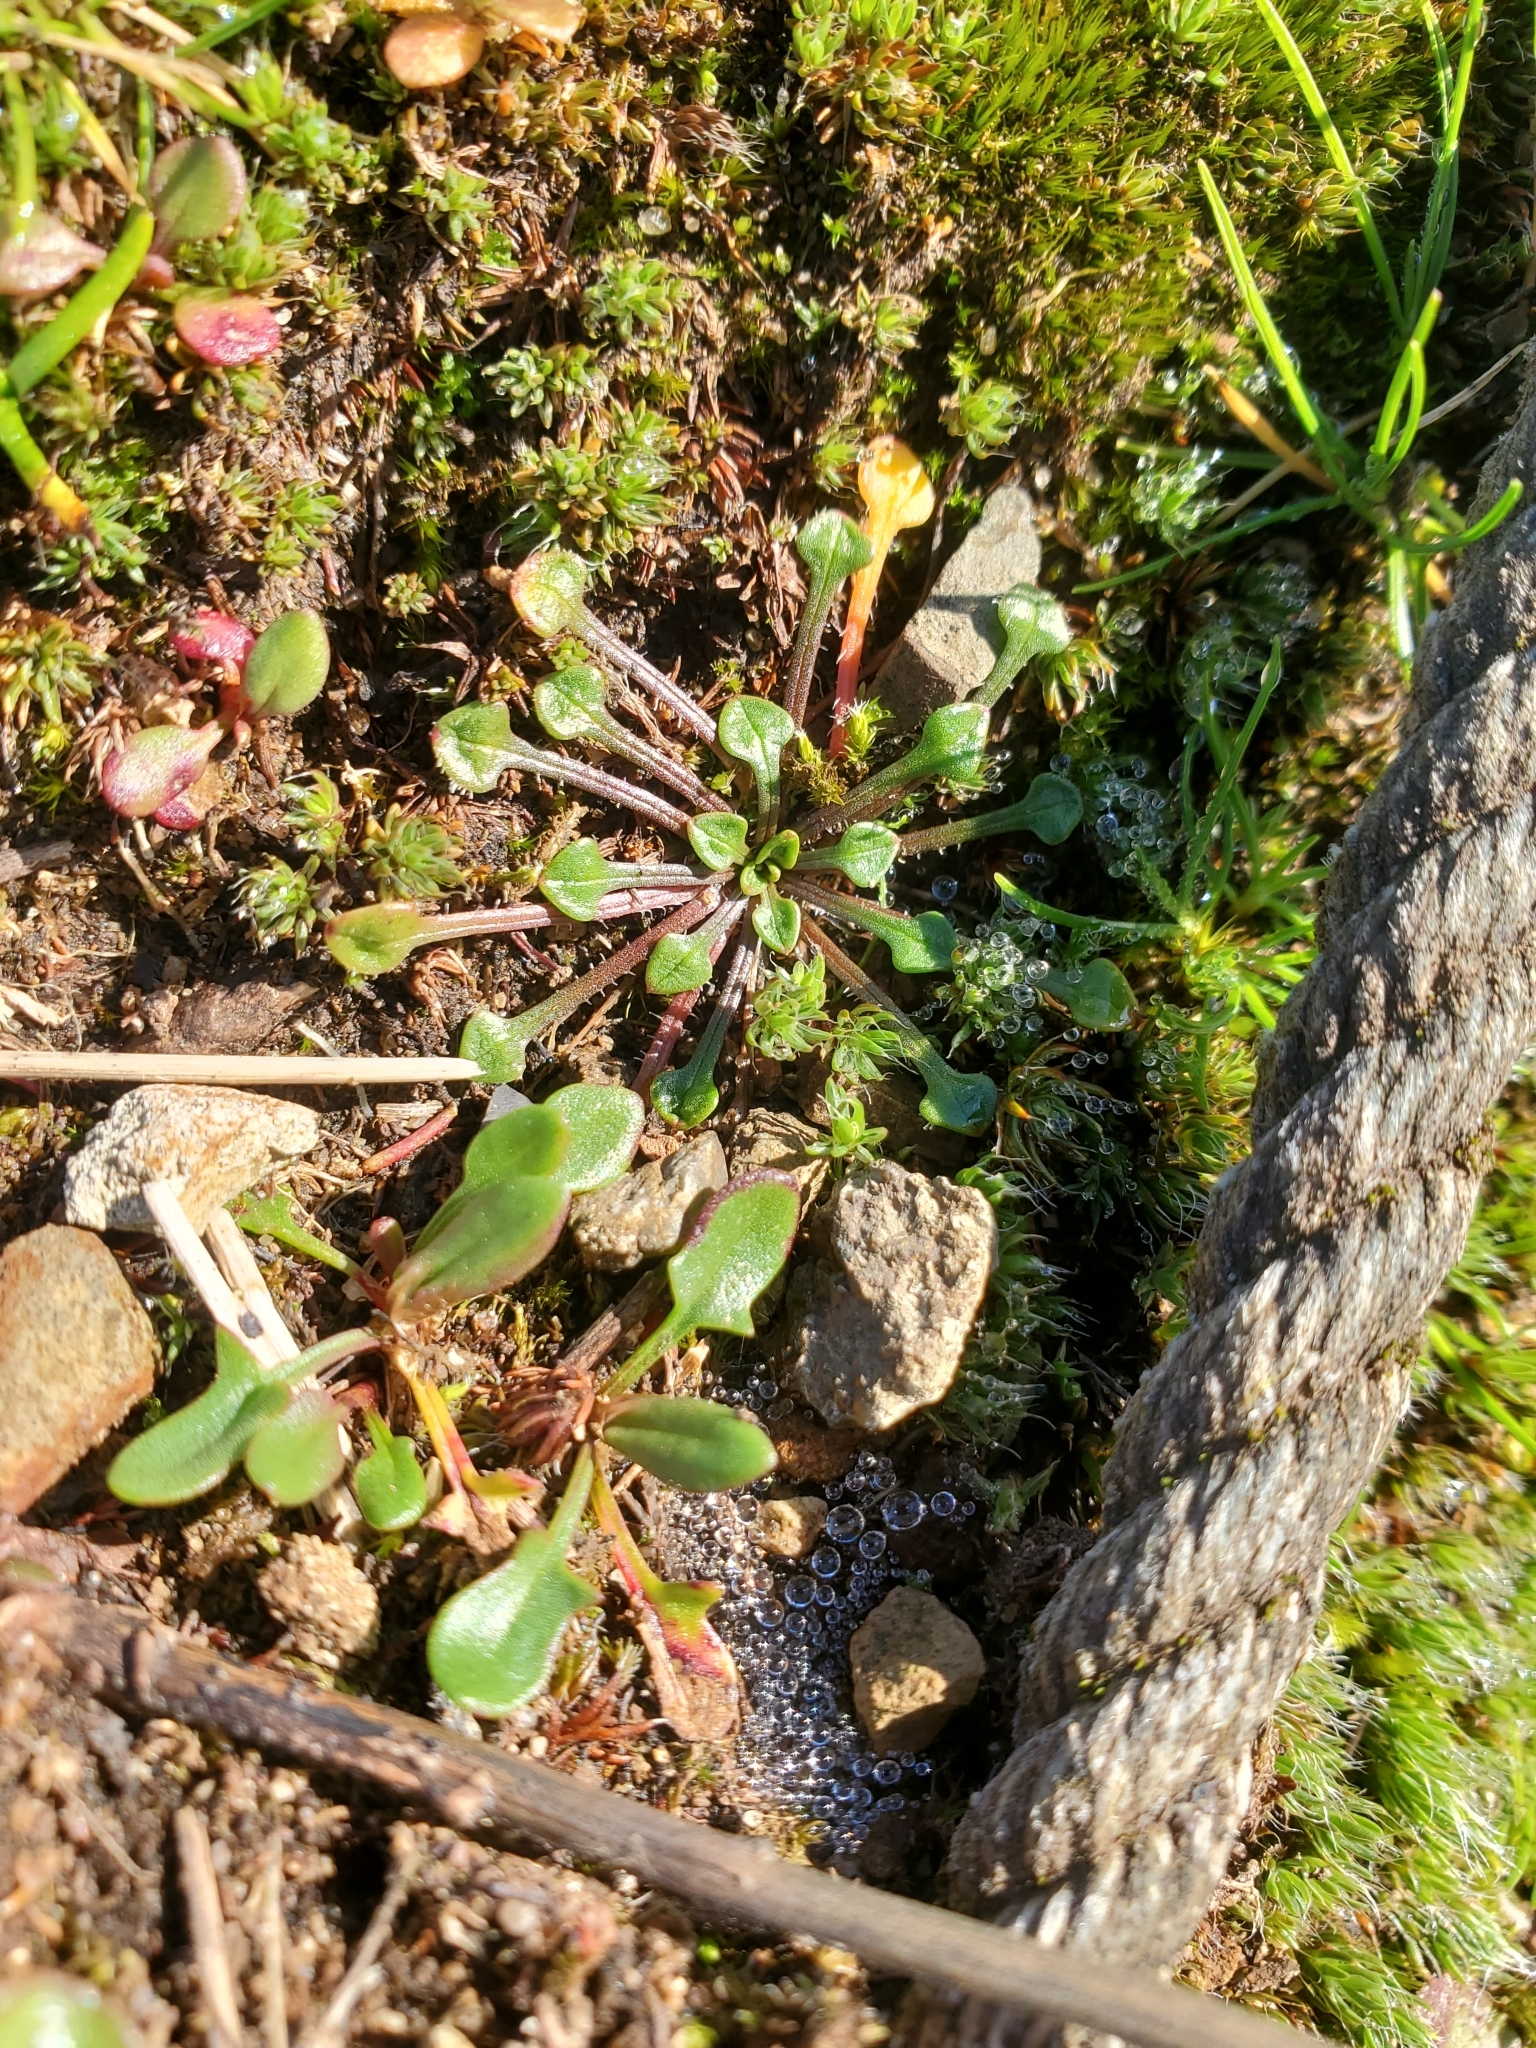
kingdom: Plantae
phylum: Tracheophyta
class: Magnoliopsida
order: Caryophyllales
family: Montiaceae
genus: Calandrinia
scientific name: Calandrinia menziesii
